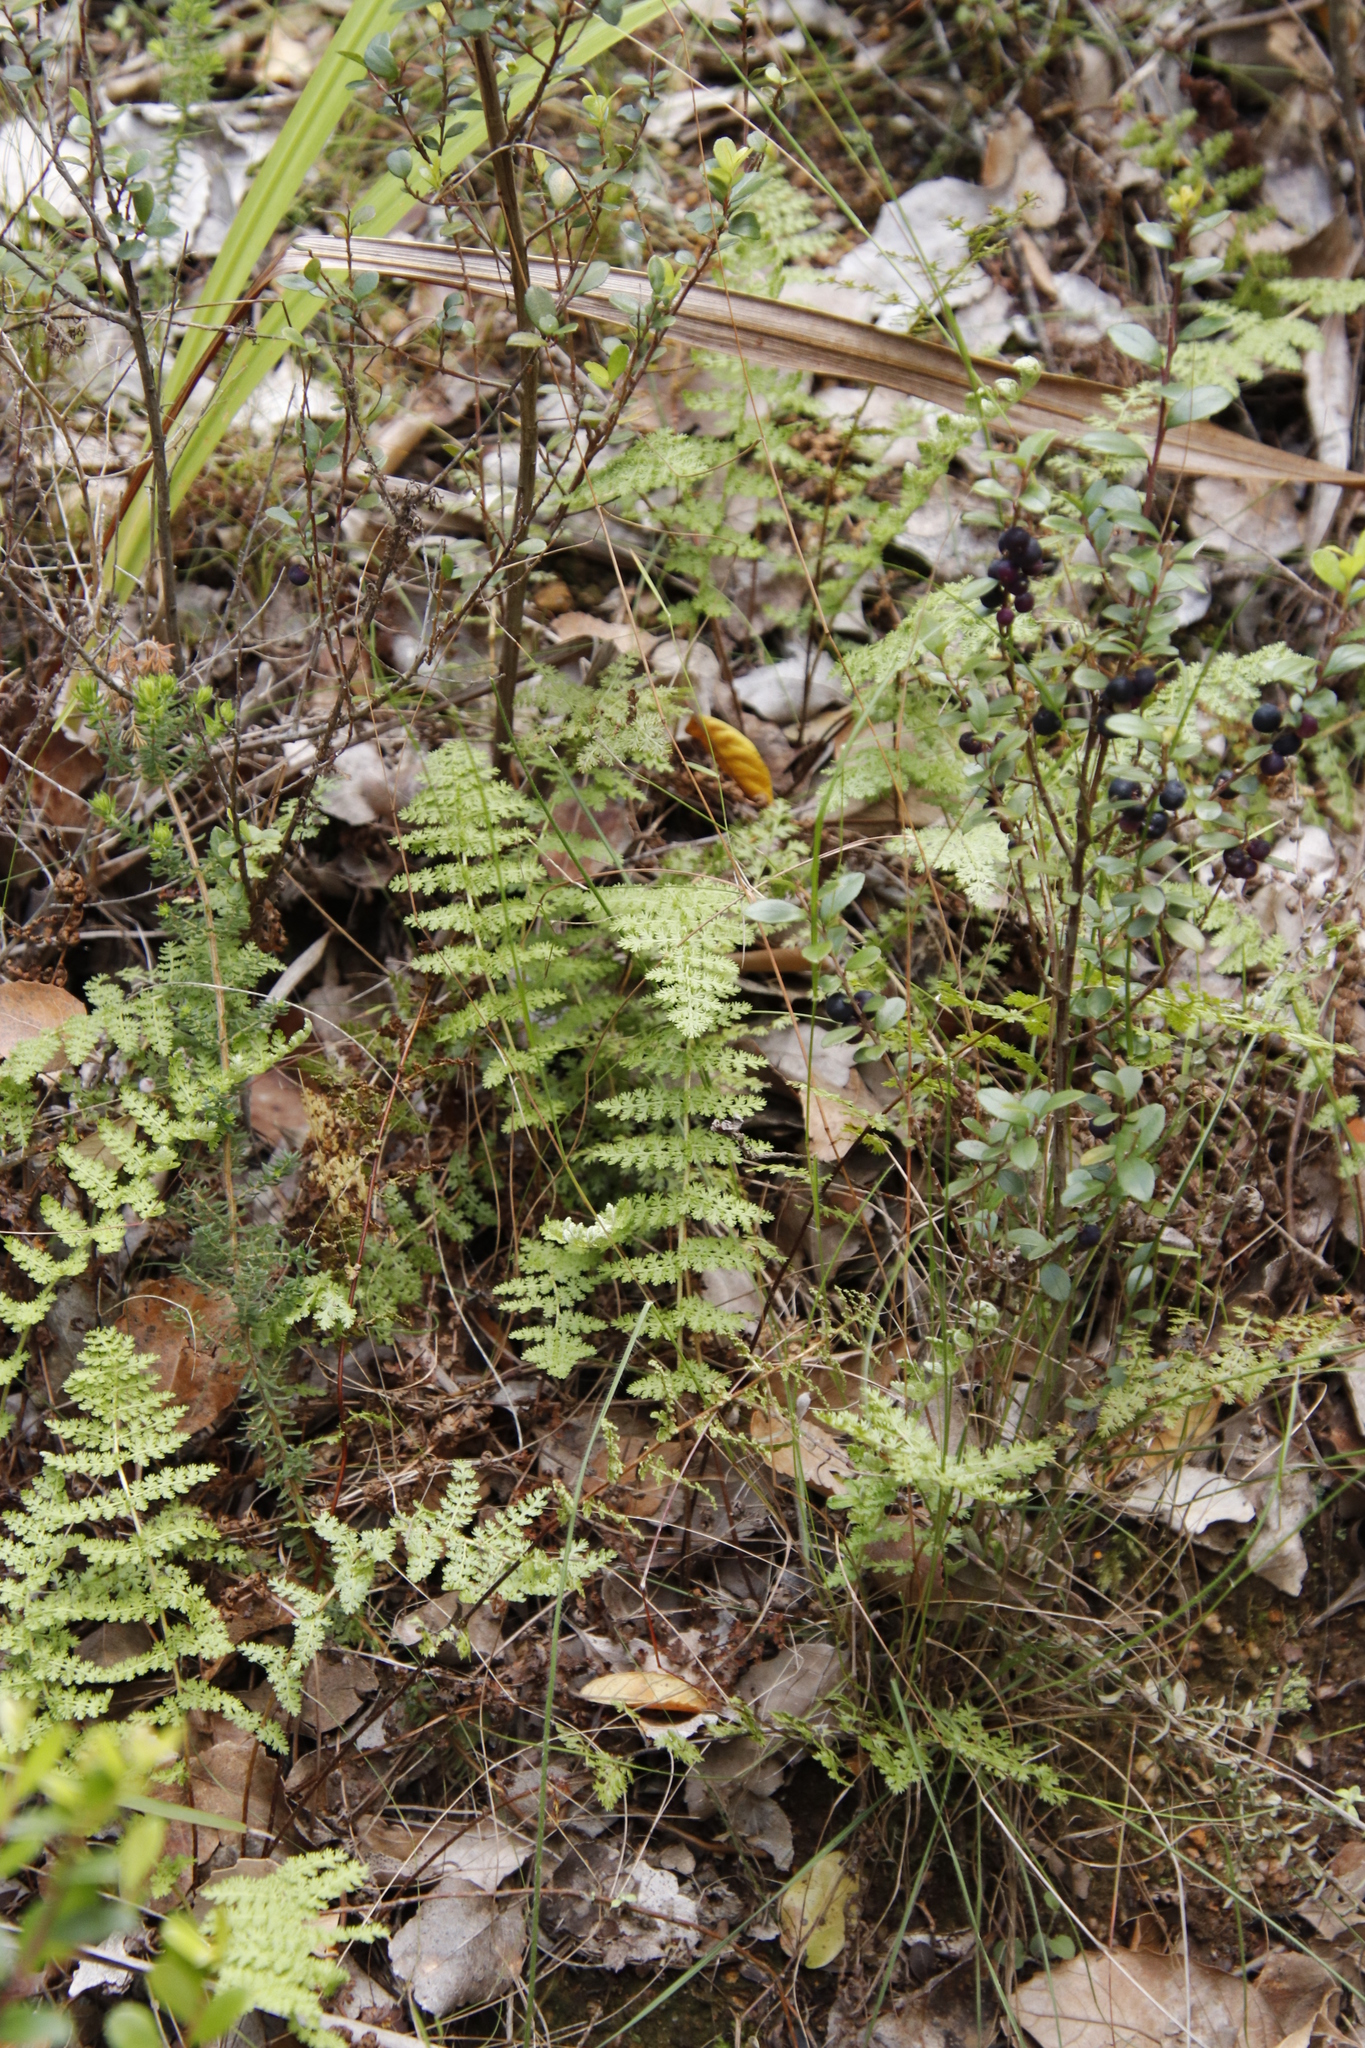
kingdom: Plantae
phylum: Tracheophyta
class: Polypodiopsida
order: Schizaeales
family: Anemiaceae
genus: Anemia
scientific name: Anemia caffrorum
